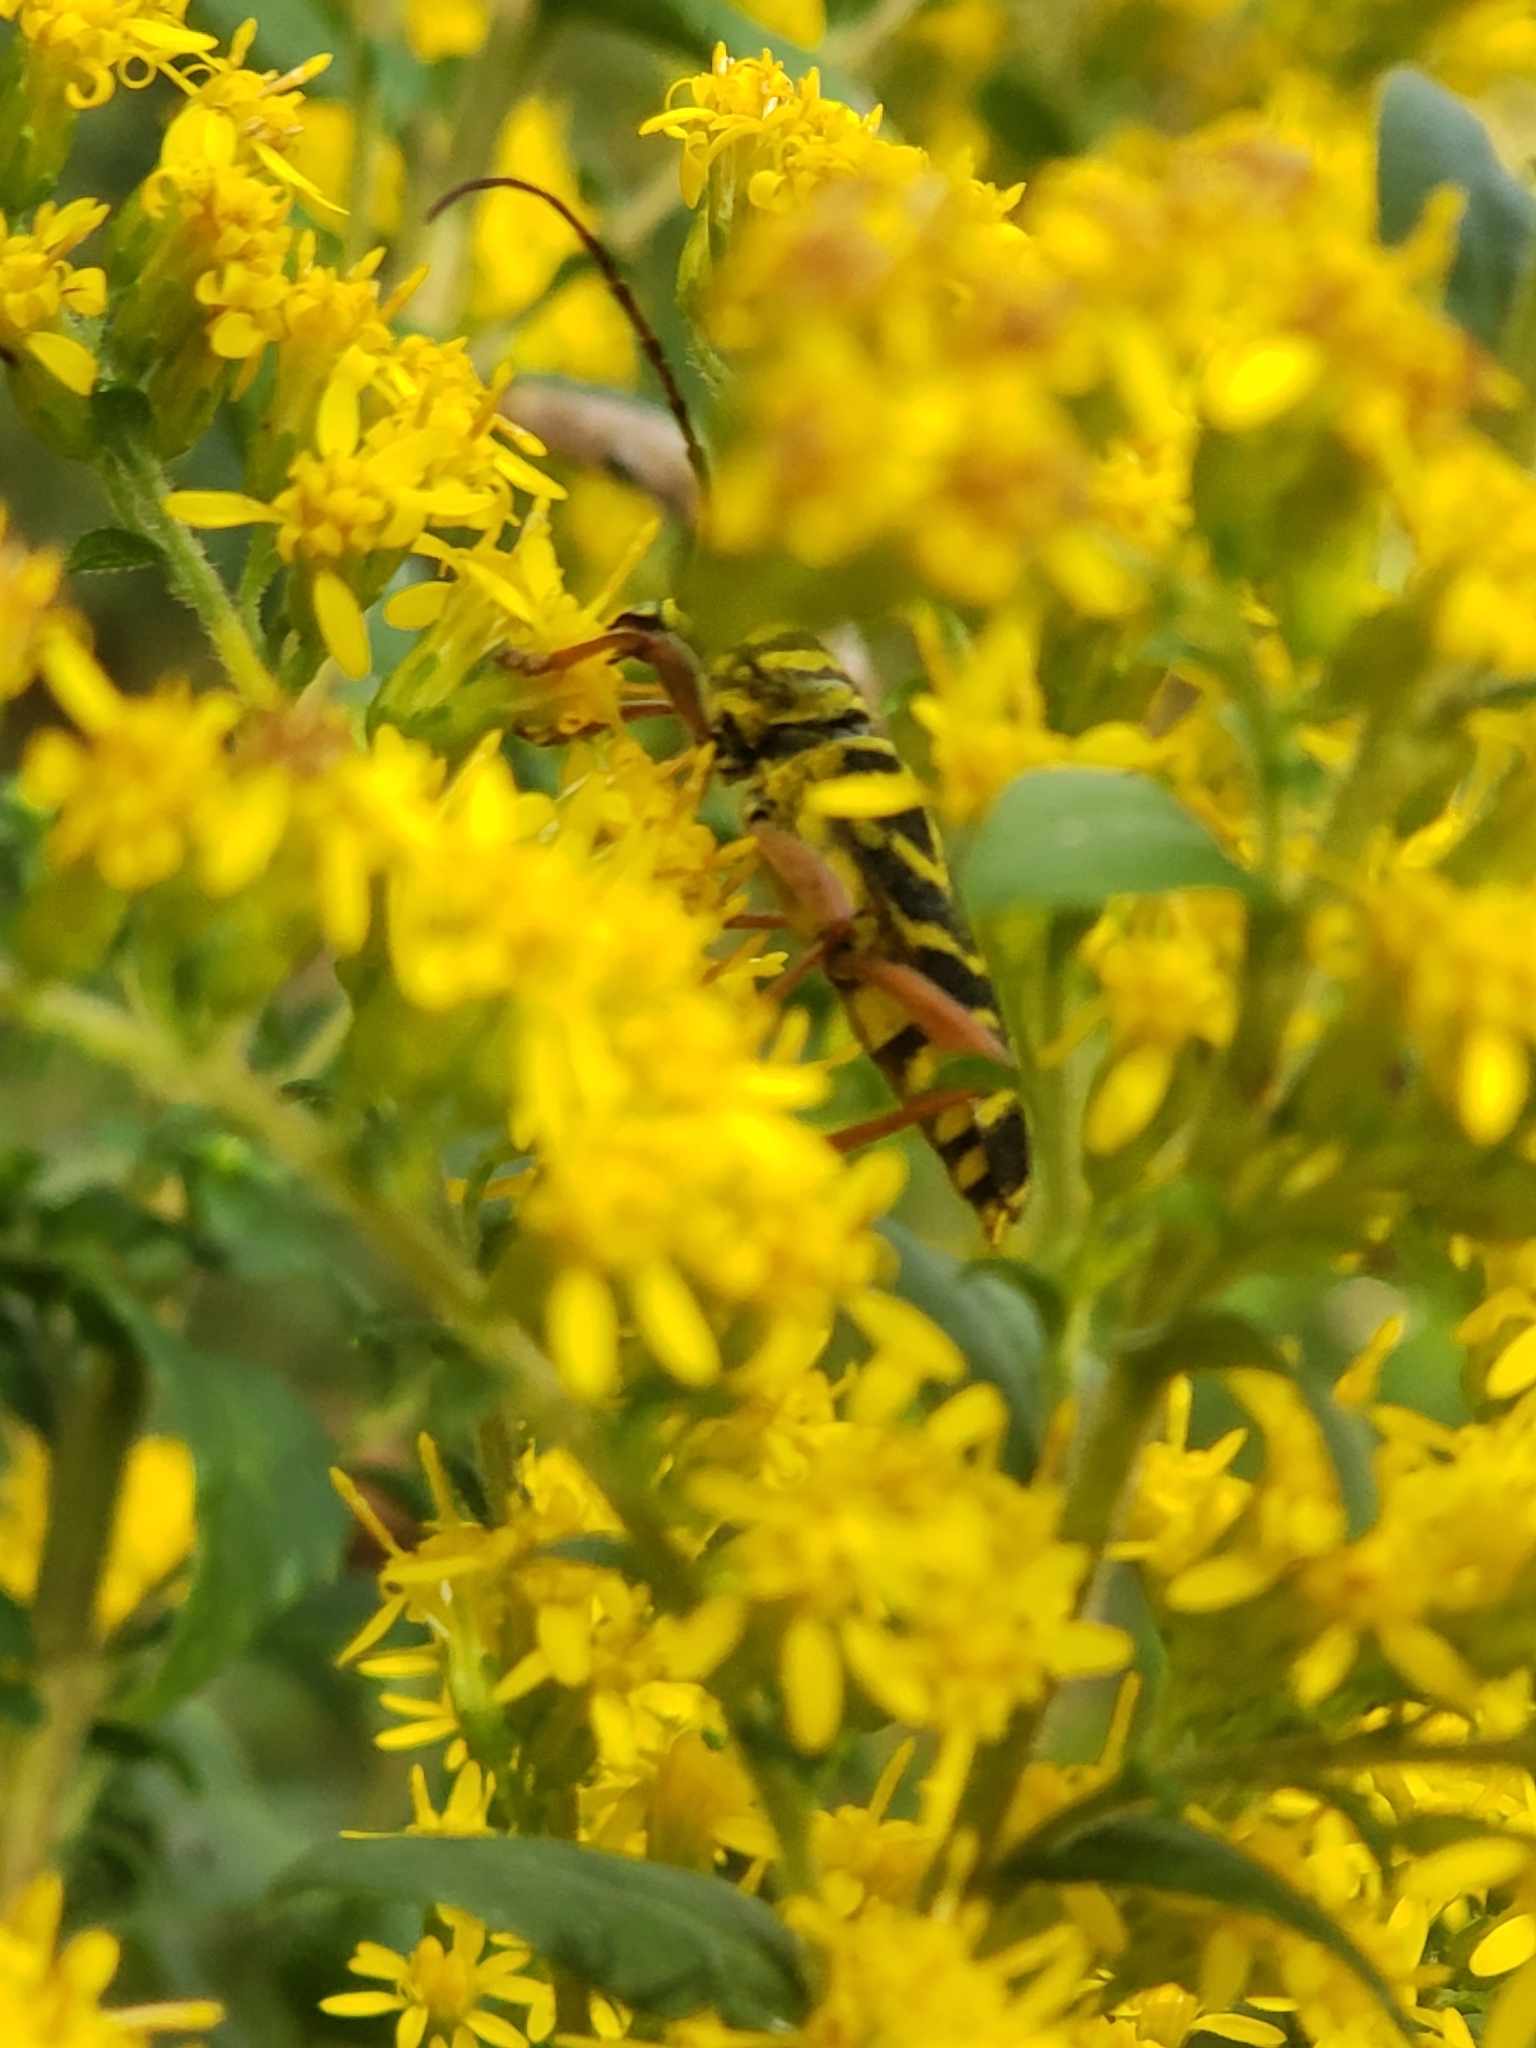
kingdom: Animalia
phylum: Arthropoda
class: Insecta
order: Coleoptera
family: Cerambycidae
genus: Megacyllene
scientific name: Megacyllene robiniae
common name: Locust borer
